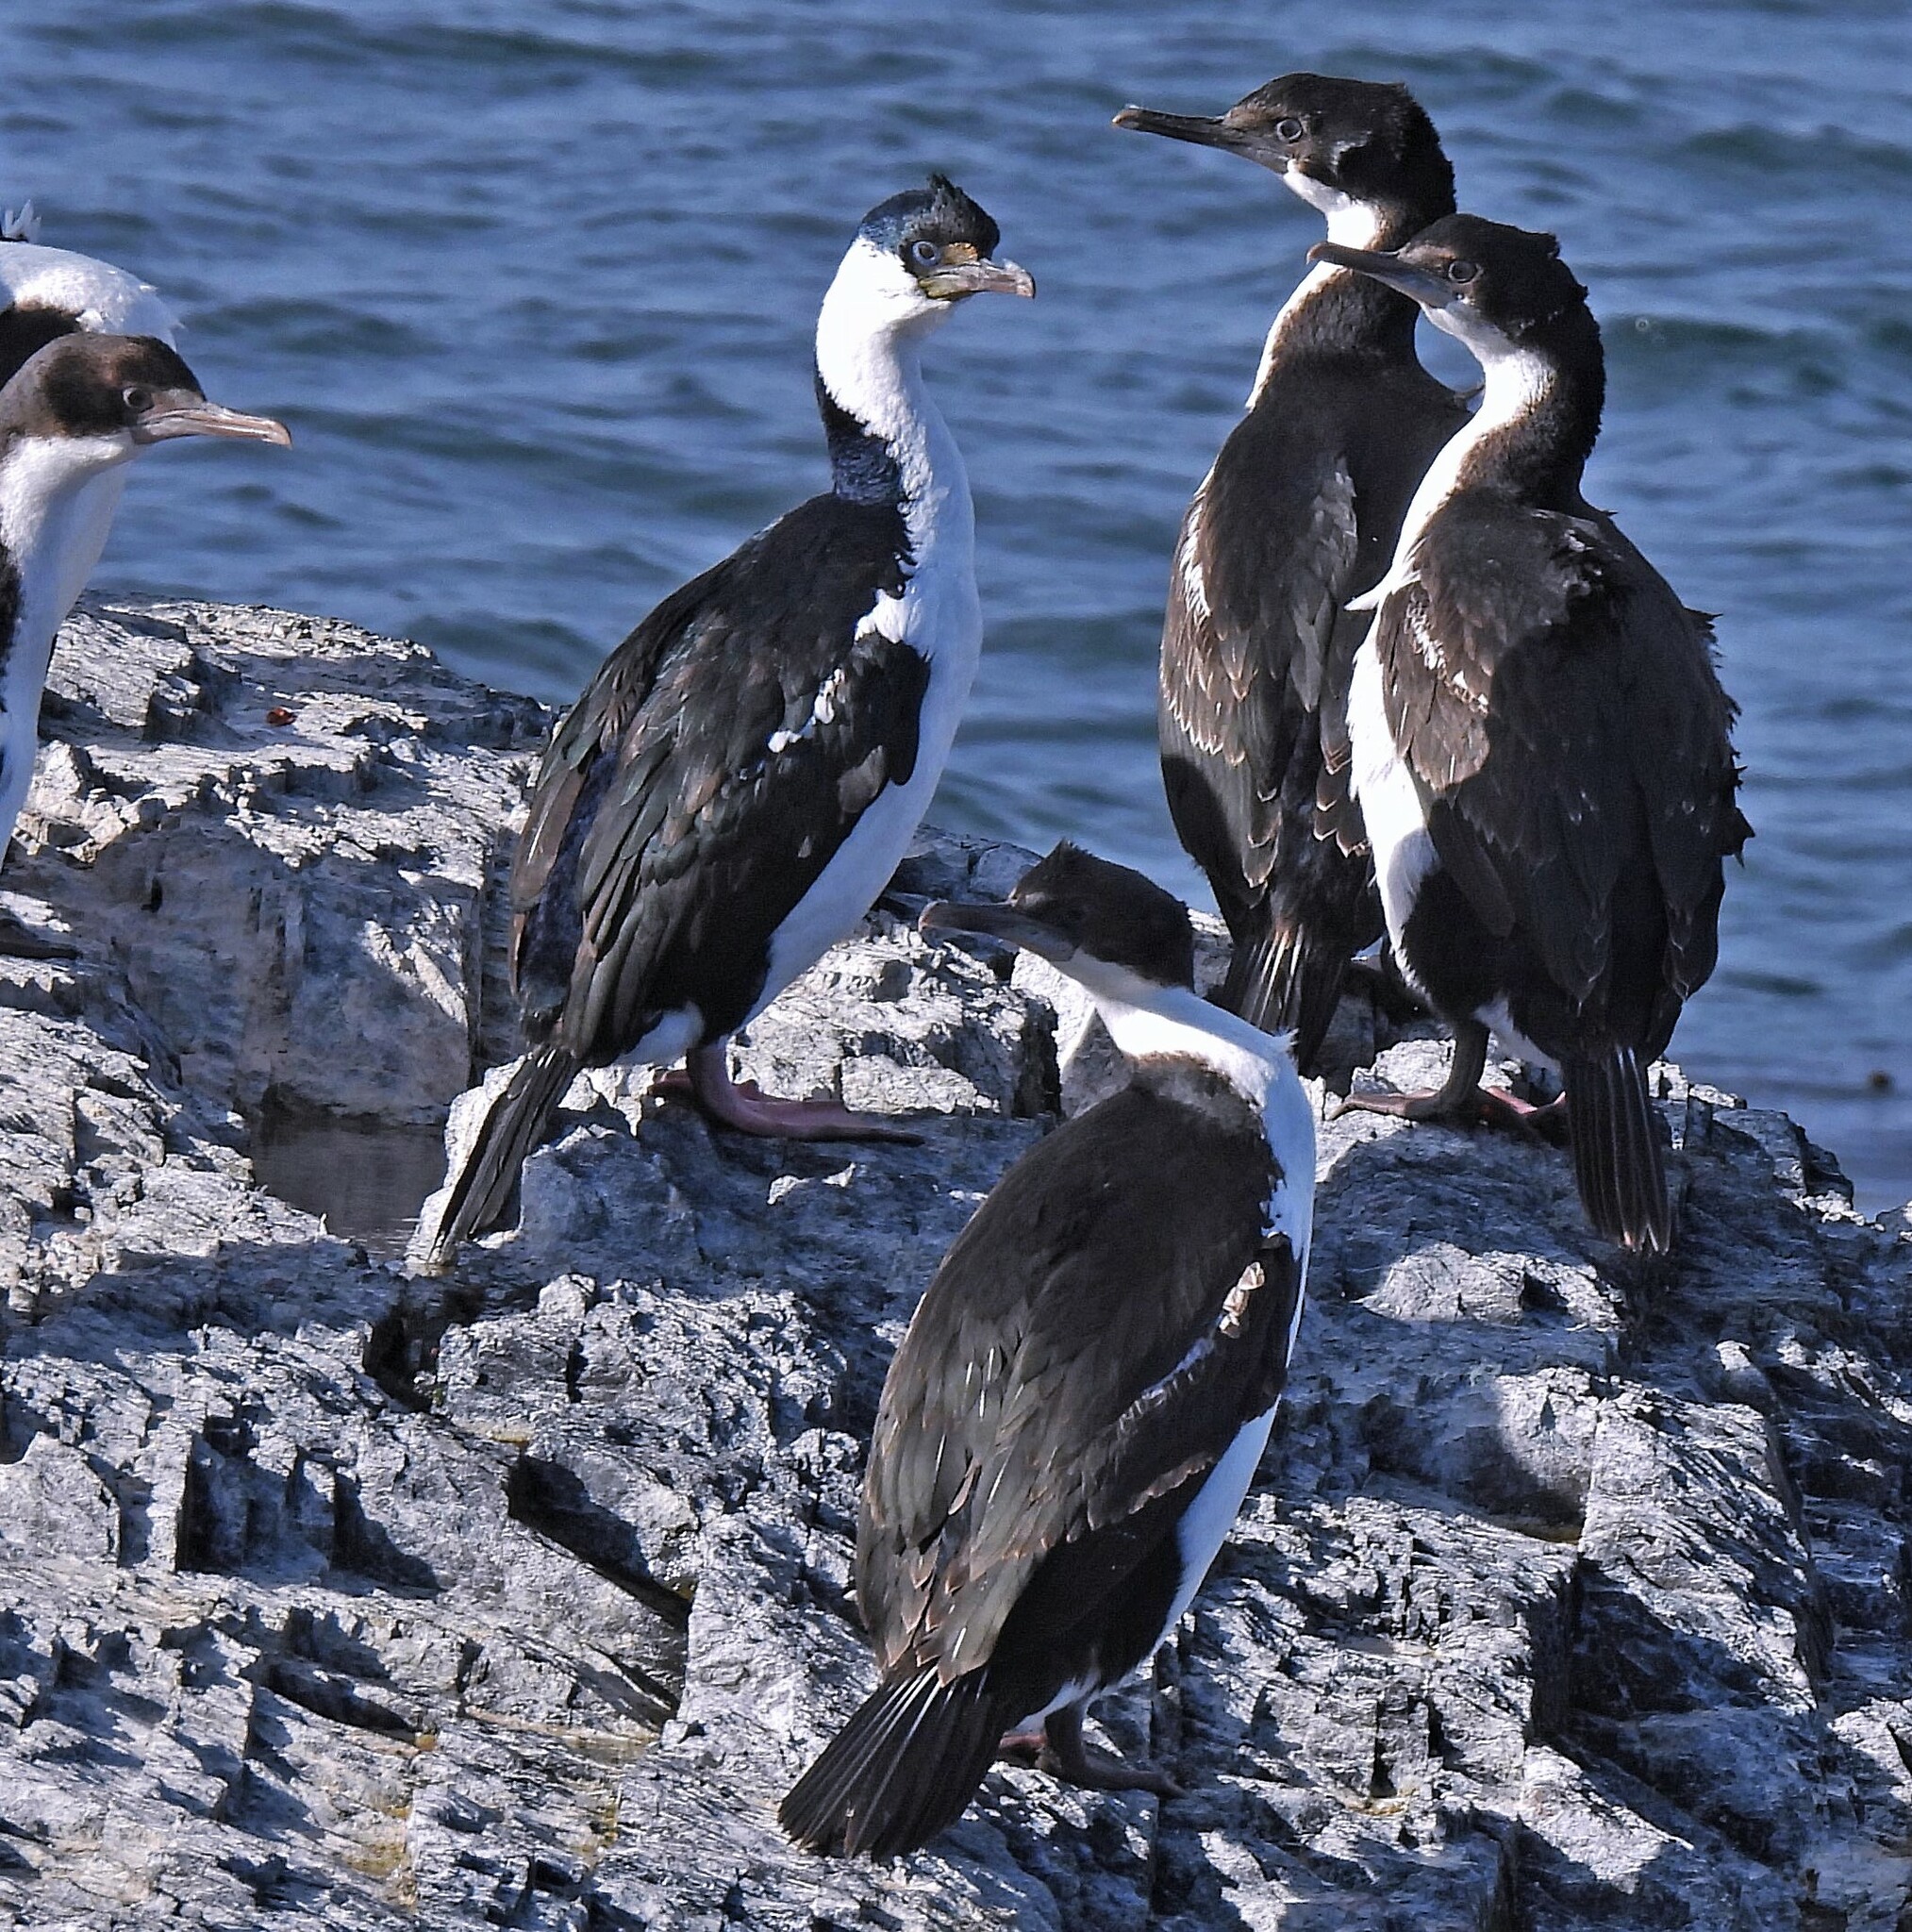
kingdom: Animalia
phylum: Chordata
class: Aves
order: Suliformes
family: Phalacrocoracidae
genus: Leucocarbo
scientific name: Leucocarbo atriceps
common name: Imperial shag
